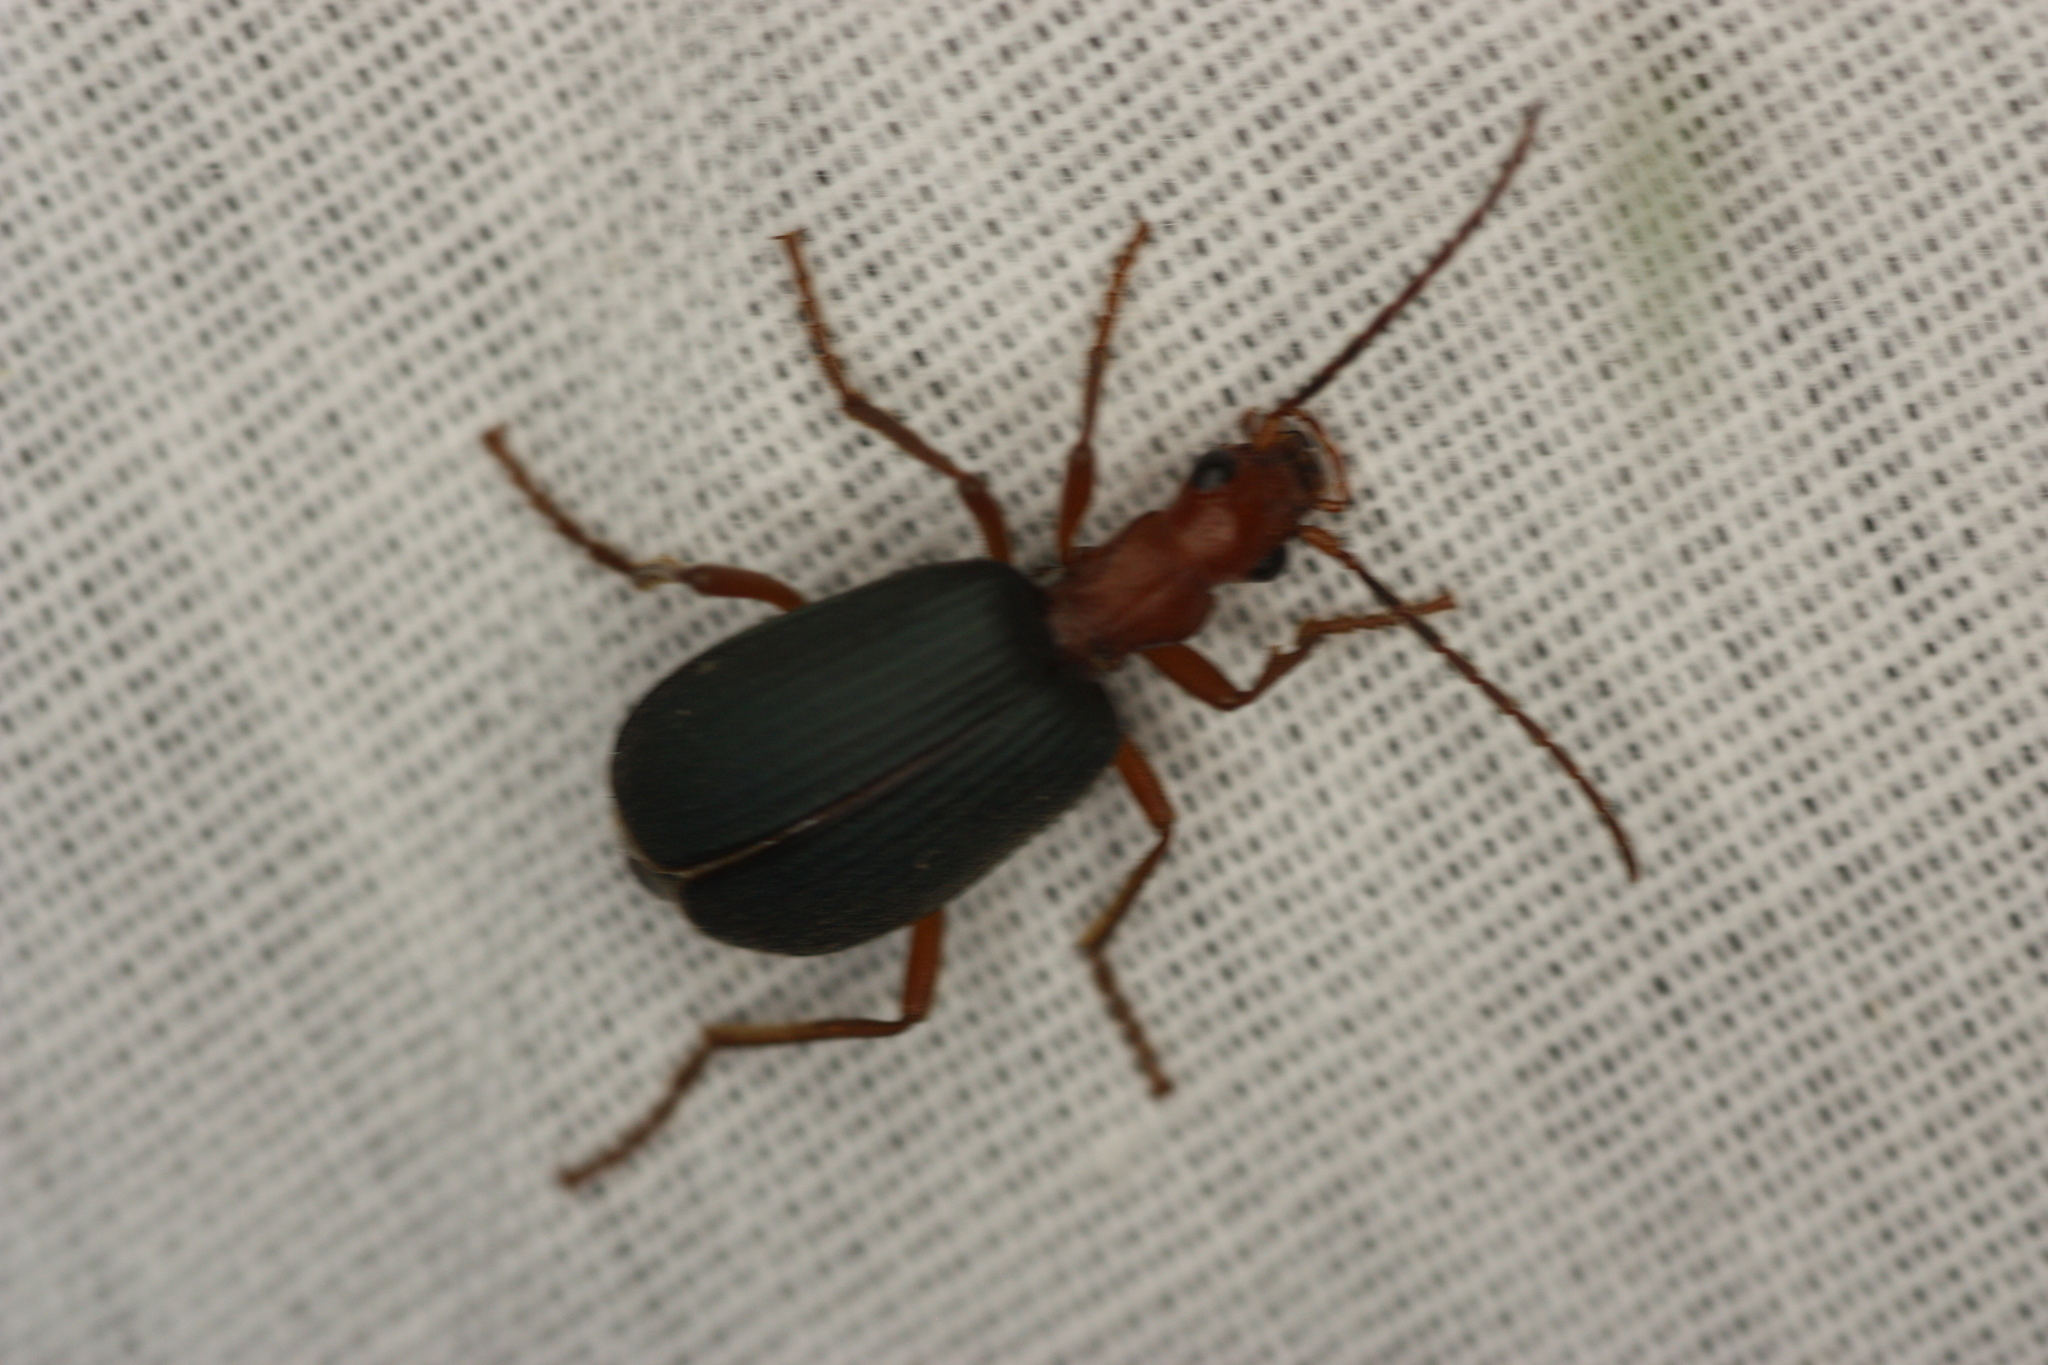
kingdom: Animalia
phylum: Arthropoda
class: Insecta
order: Coleoptera
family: Carabidae
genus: Brachinus
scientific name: Brachinus
